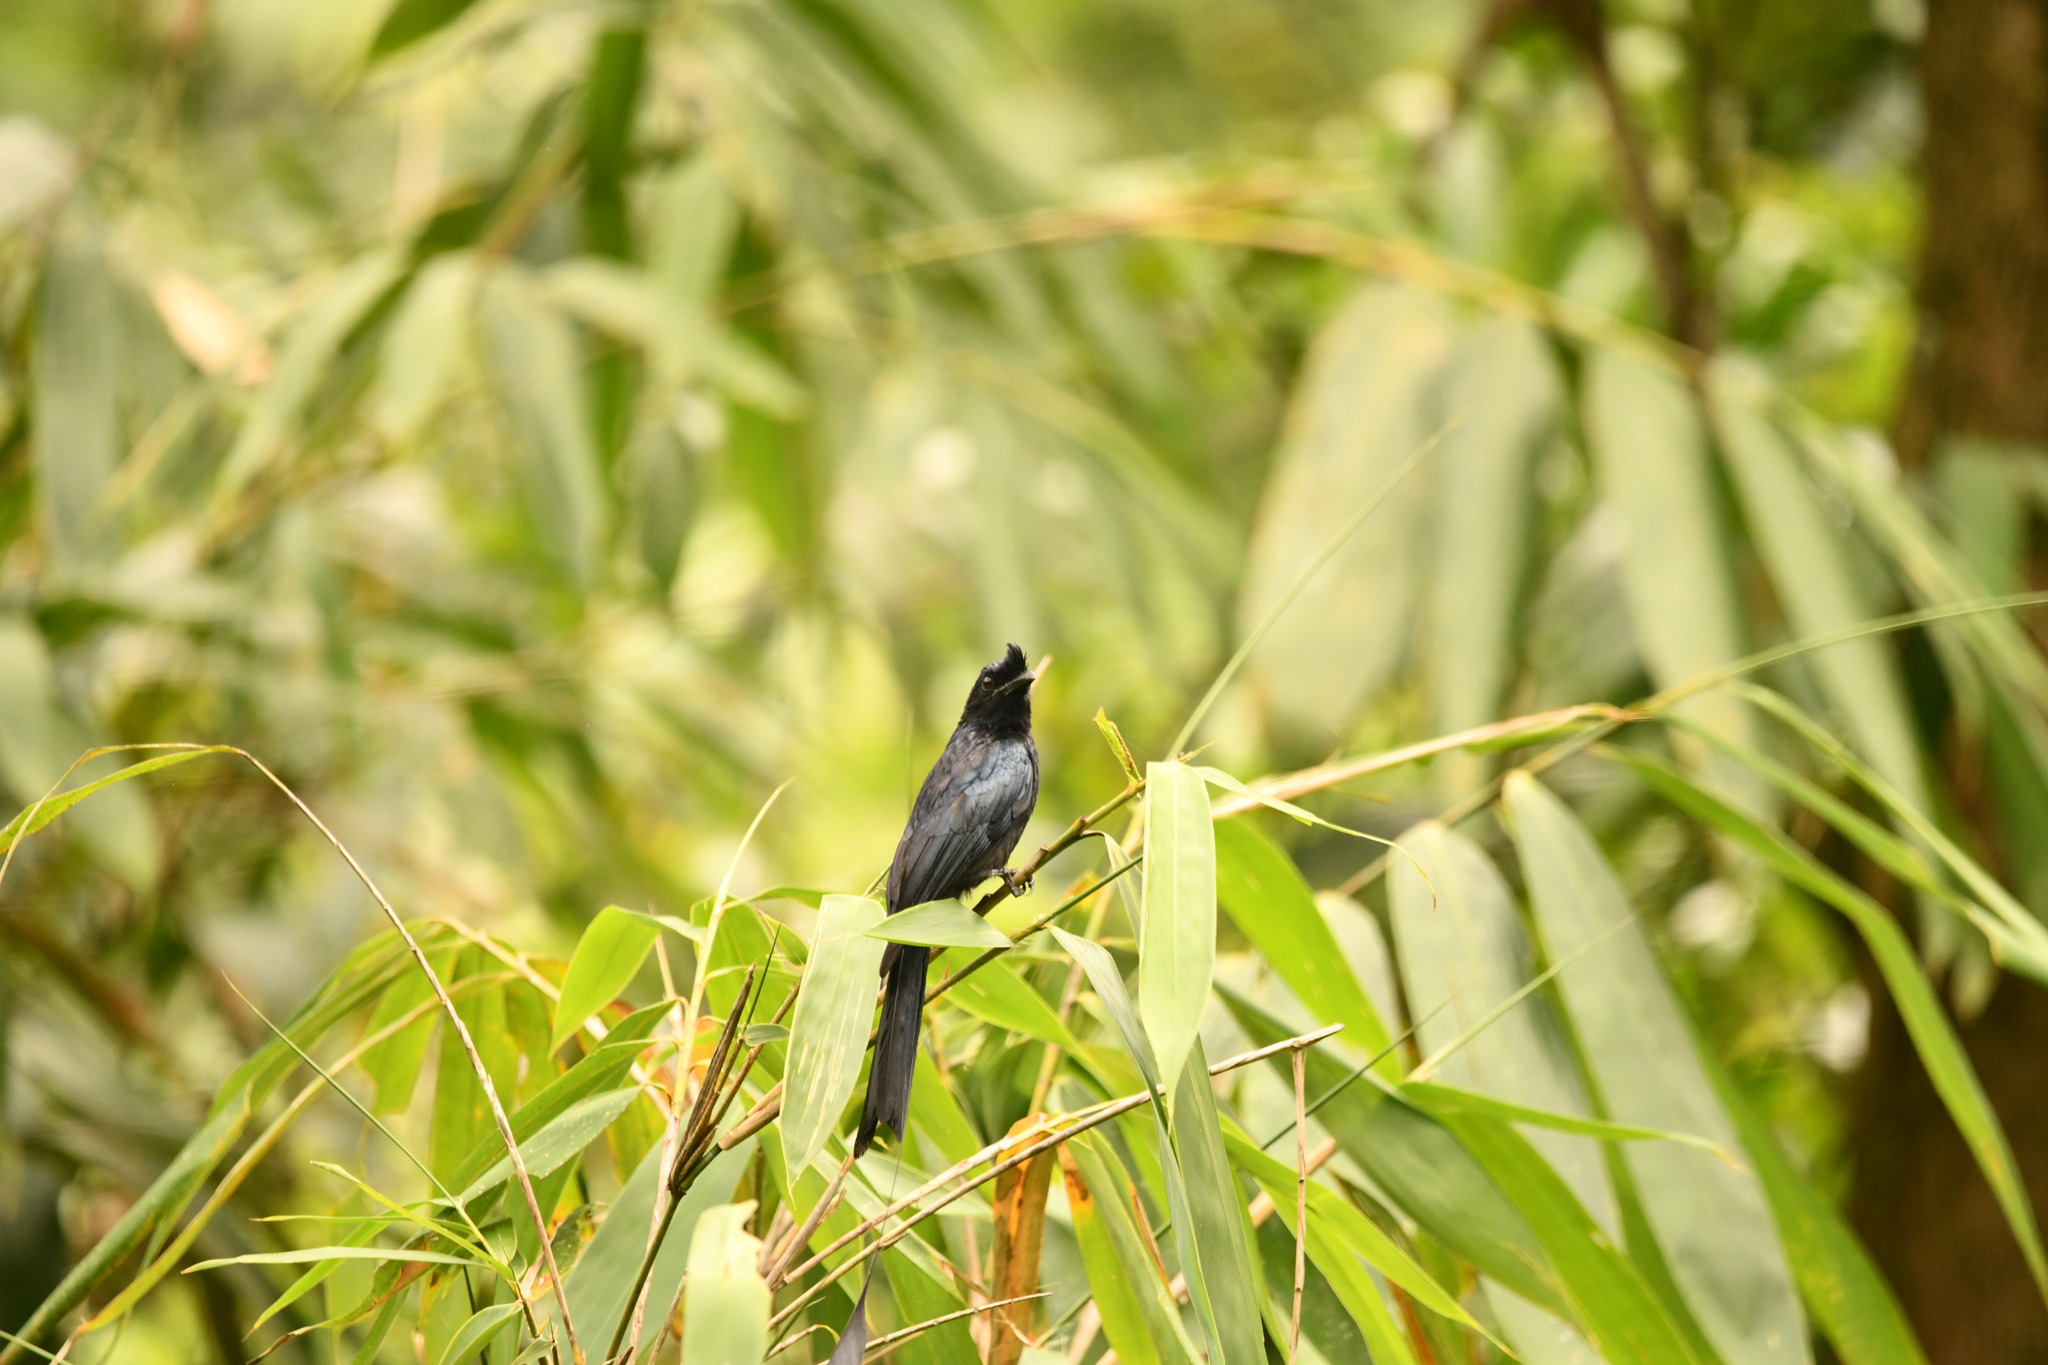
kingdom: Animalia
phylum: Chordata
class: Aves
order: Passeriformes
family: Dicruridae
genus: Dicrurus
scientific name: Dicrurus paradiseus
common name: Greater racket-tailed drongo
